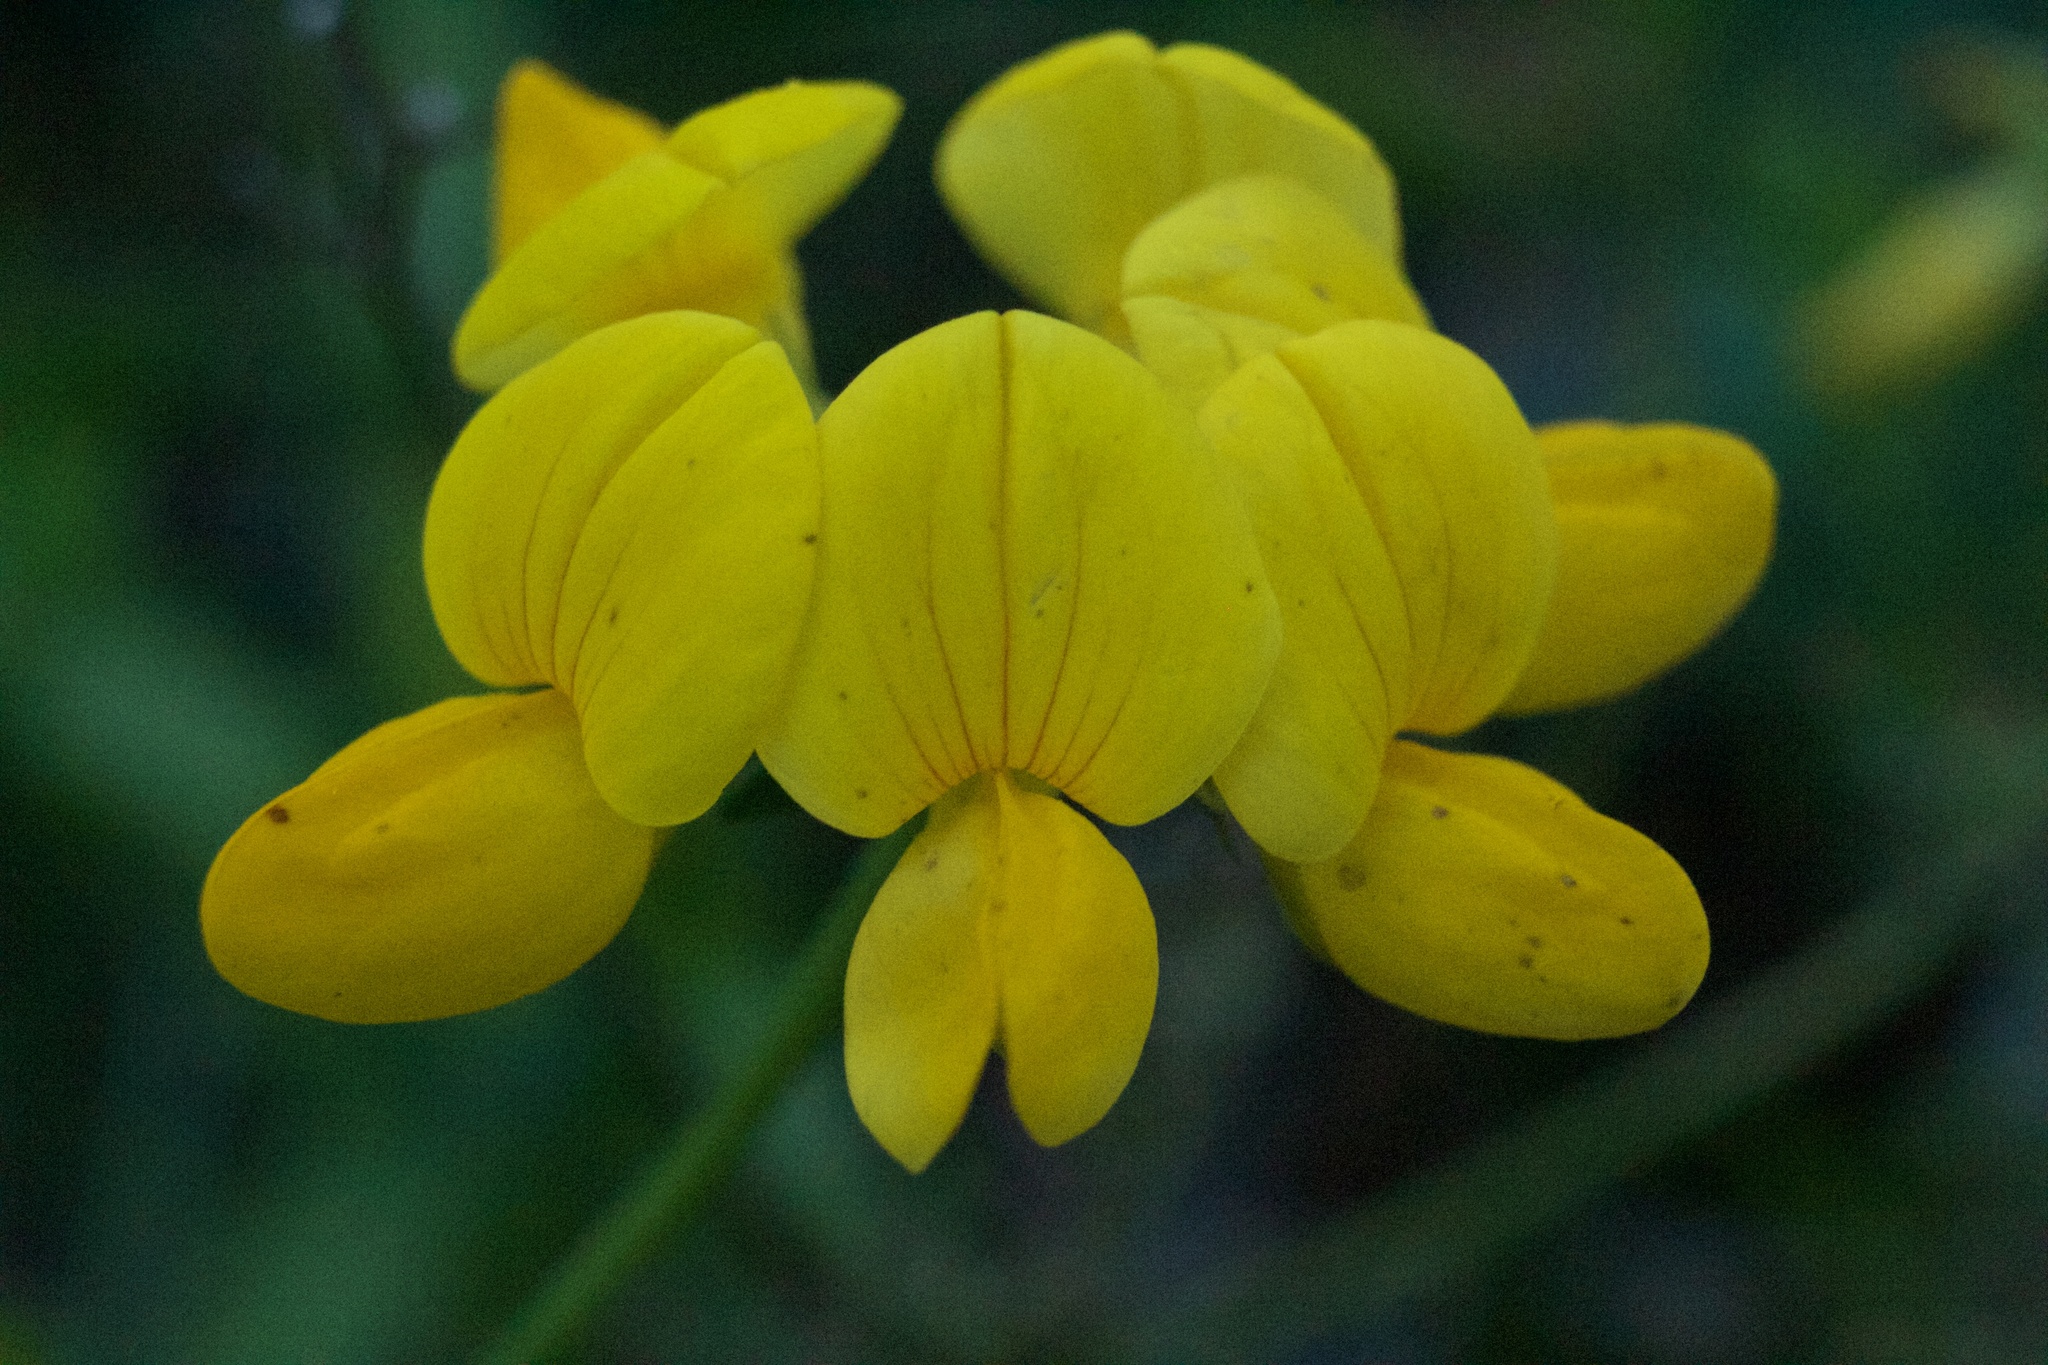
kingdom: Plantae
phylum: Tracheophyta
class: Magnoliopsida
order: Fabales
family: Fabaceae
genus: Lotus
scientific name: Lotus corniculatus
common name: Common bird's-foot-trefoil
